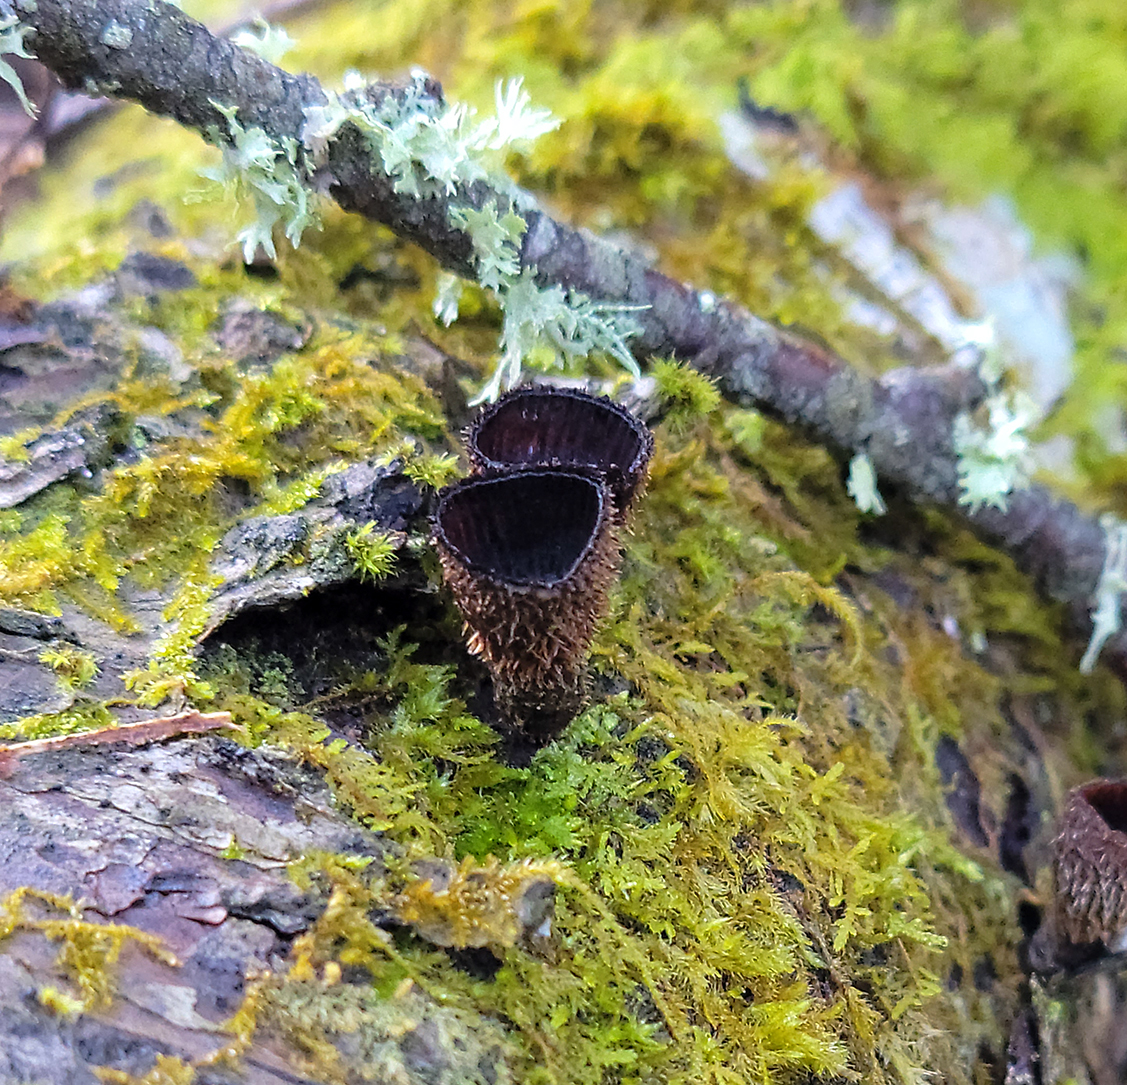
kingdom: Fungi
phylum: Basidiomycota
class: Agaricomycetes
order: Agaricales
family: Agaricaceae
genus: Cyathus
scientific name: Cyathus striatus
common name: Fluted bird's nest
